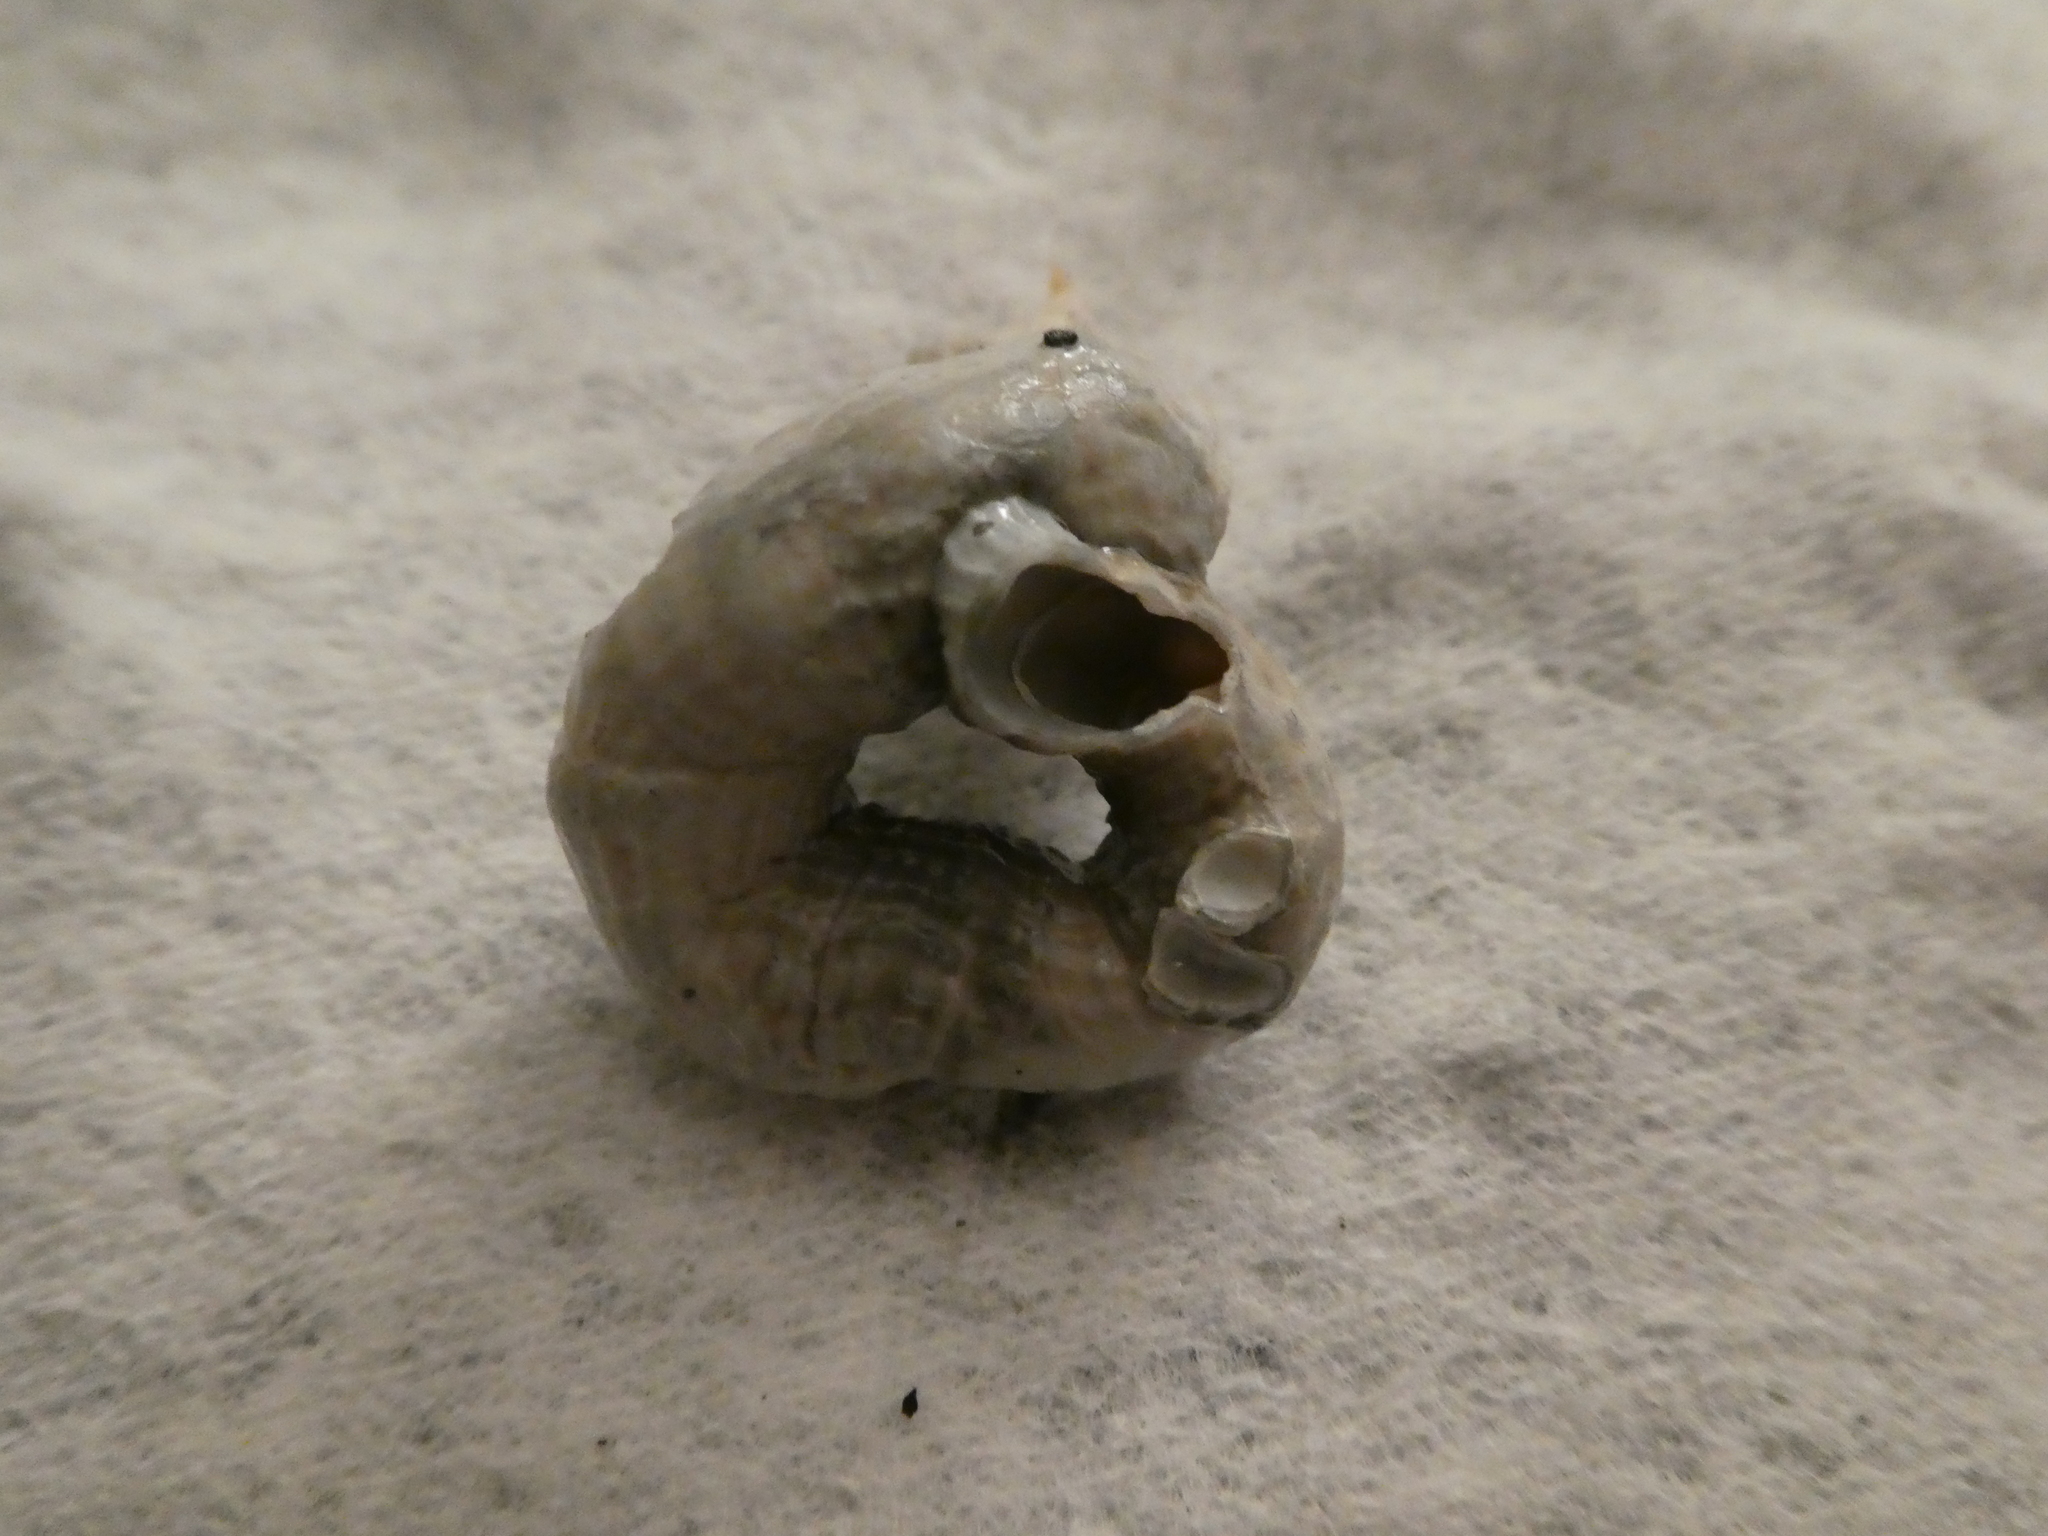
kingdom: Animalia
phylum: Mollusca
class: Gastropoda
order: Littorinimorpha
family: Vermetidae
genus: Thylacodes
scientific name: Thylacodes squamigerus
